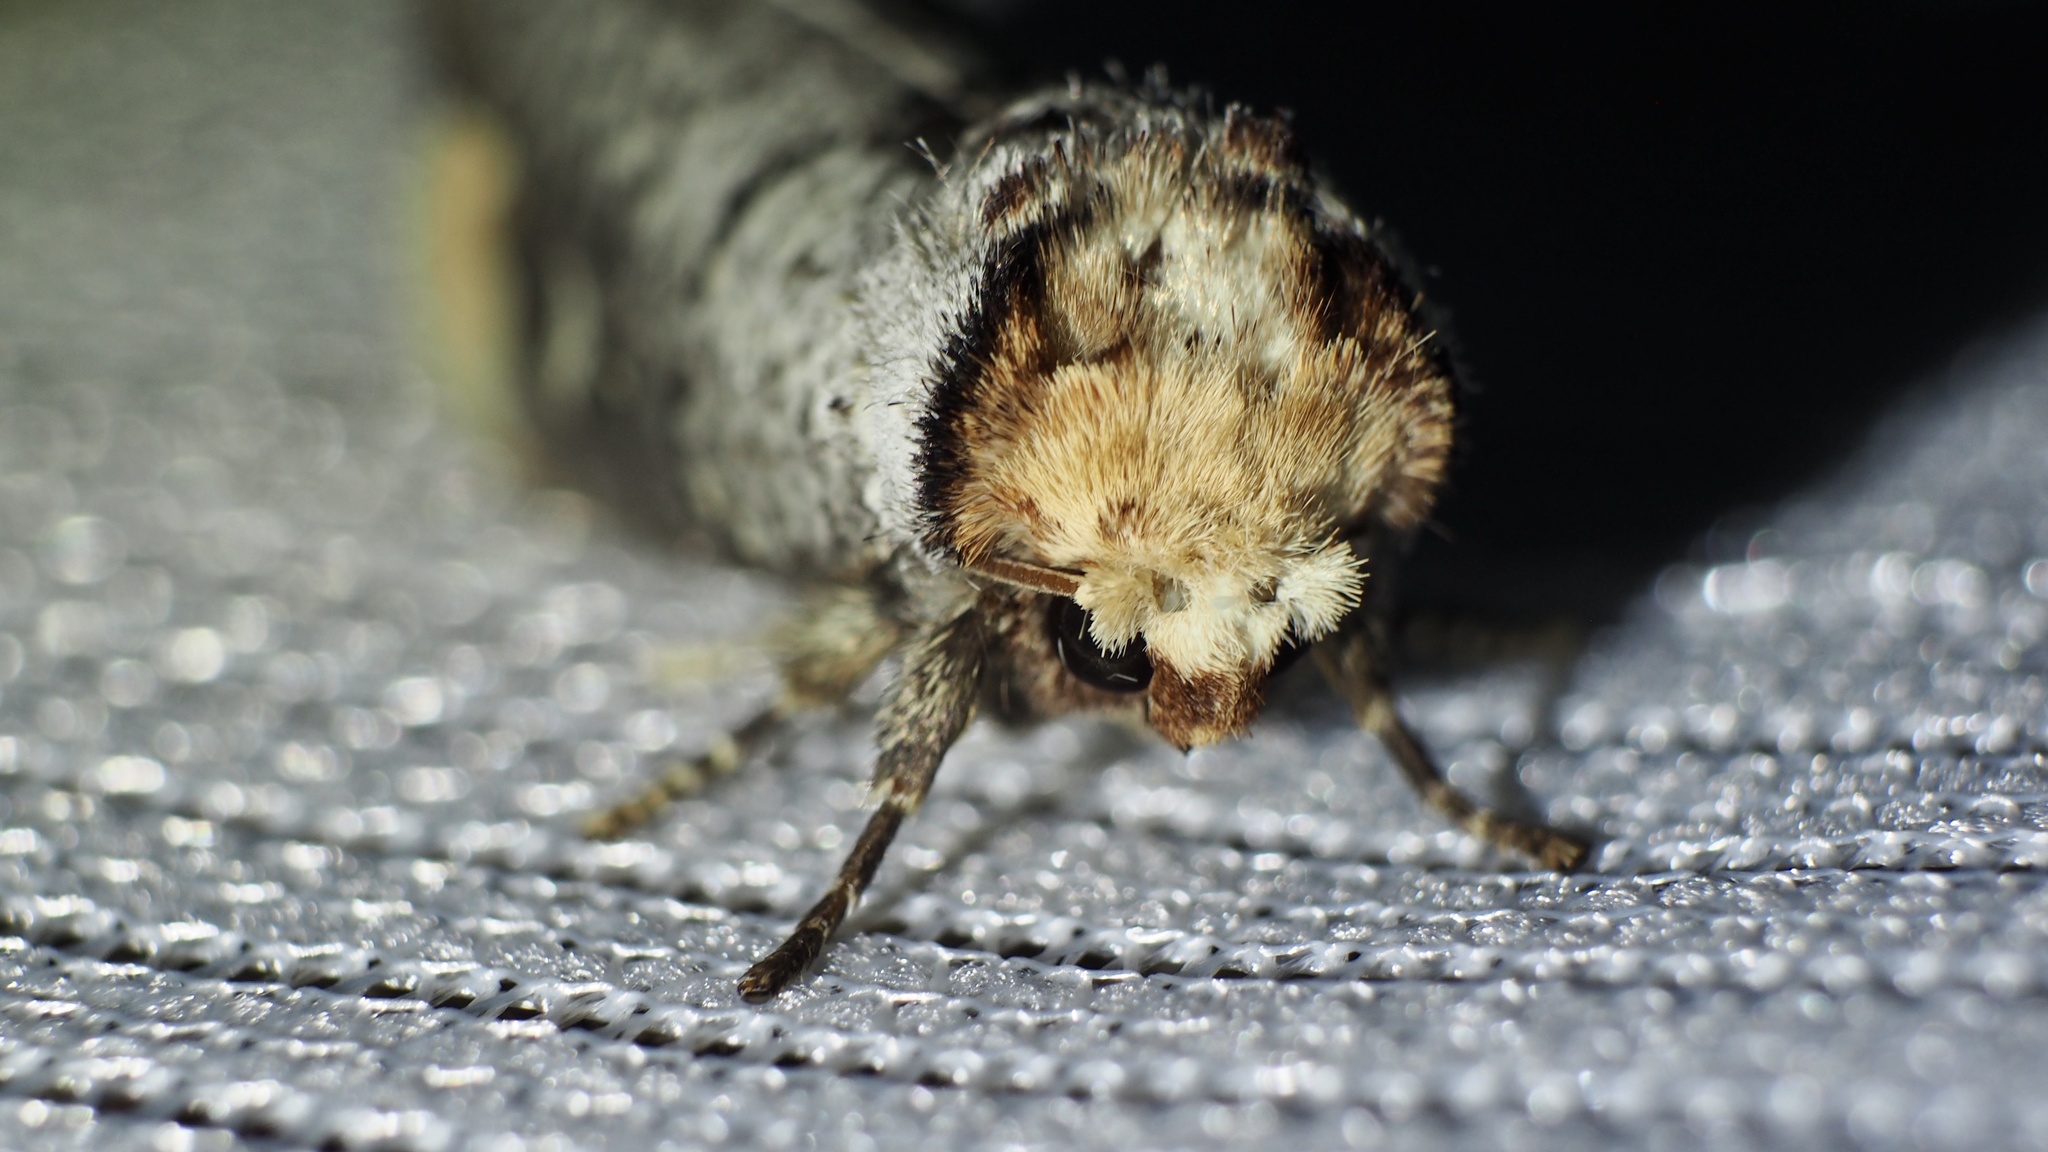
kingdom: Animalia
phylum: Arthropoda
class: Insecta
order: Lepidoptera
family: Notodontidae
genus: Phalera
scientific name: Phalera assimilis
